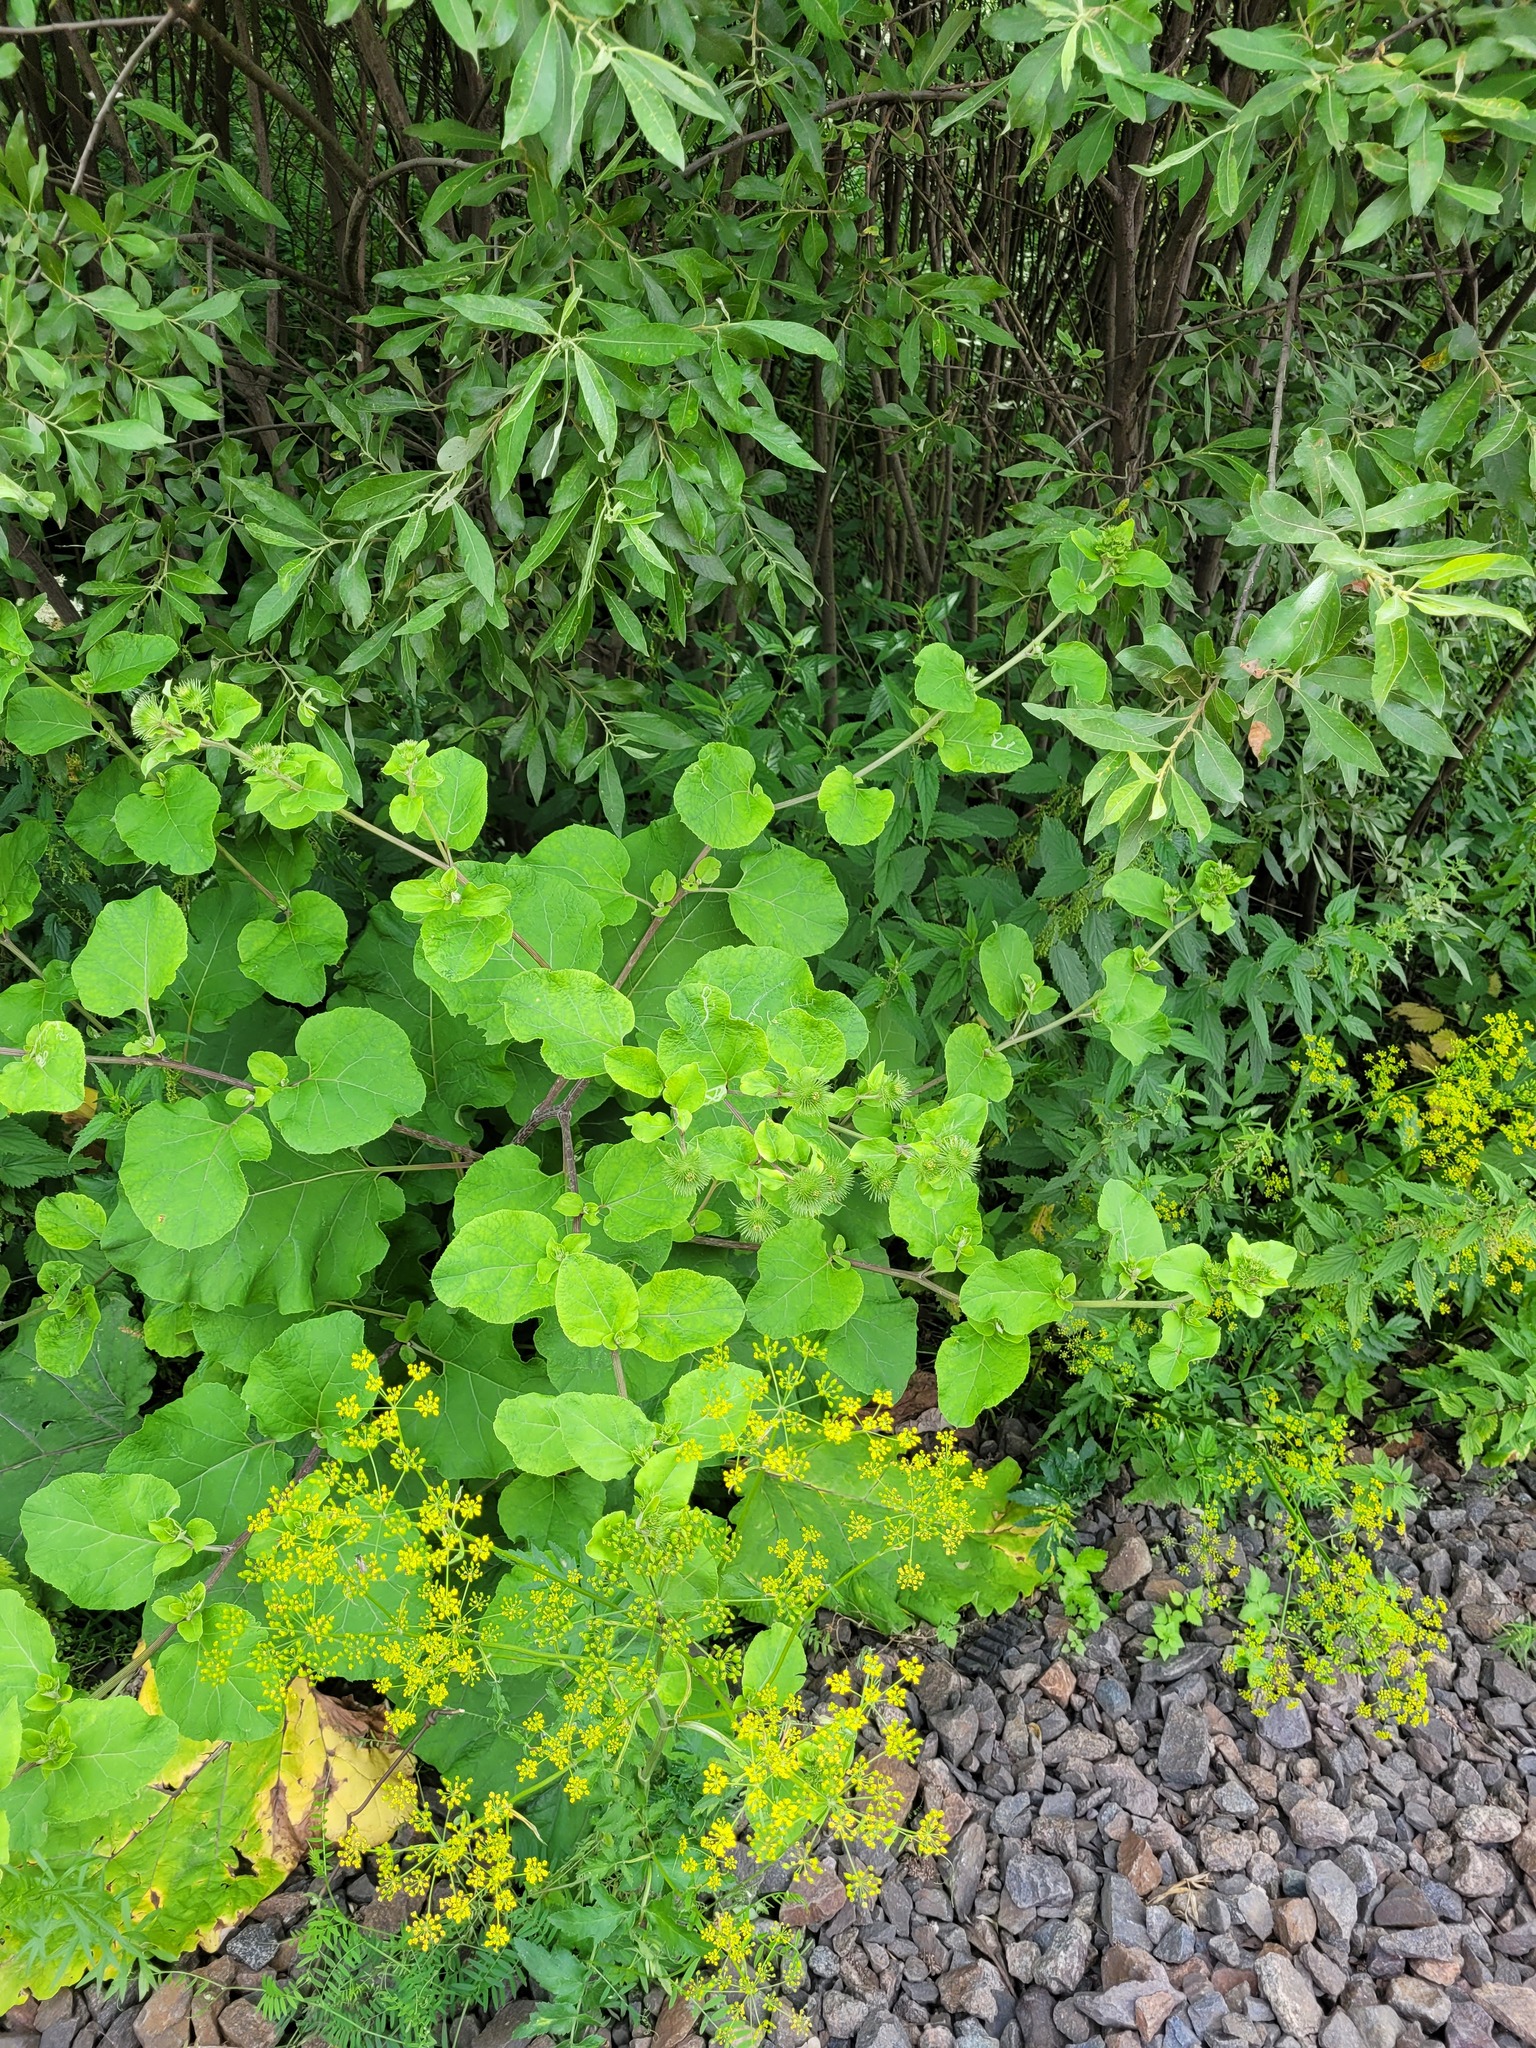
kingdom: Plantae
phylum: Tracheophyta
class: Magnoliopsida
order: Asterales
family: Asteraceae
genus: Arctium
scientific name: Arctium minus
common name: Lesser burdock
